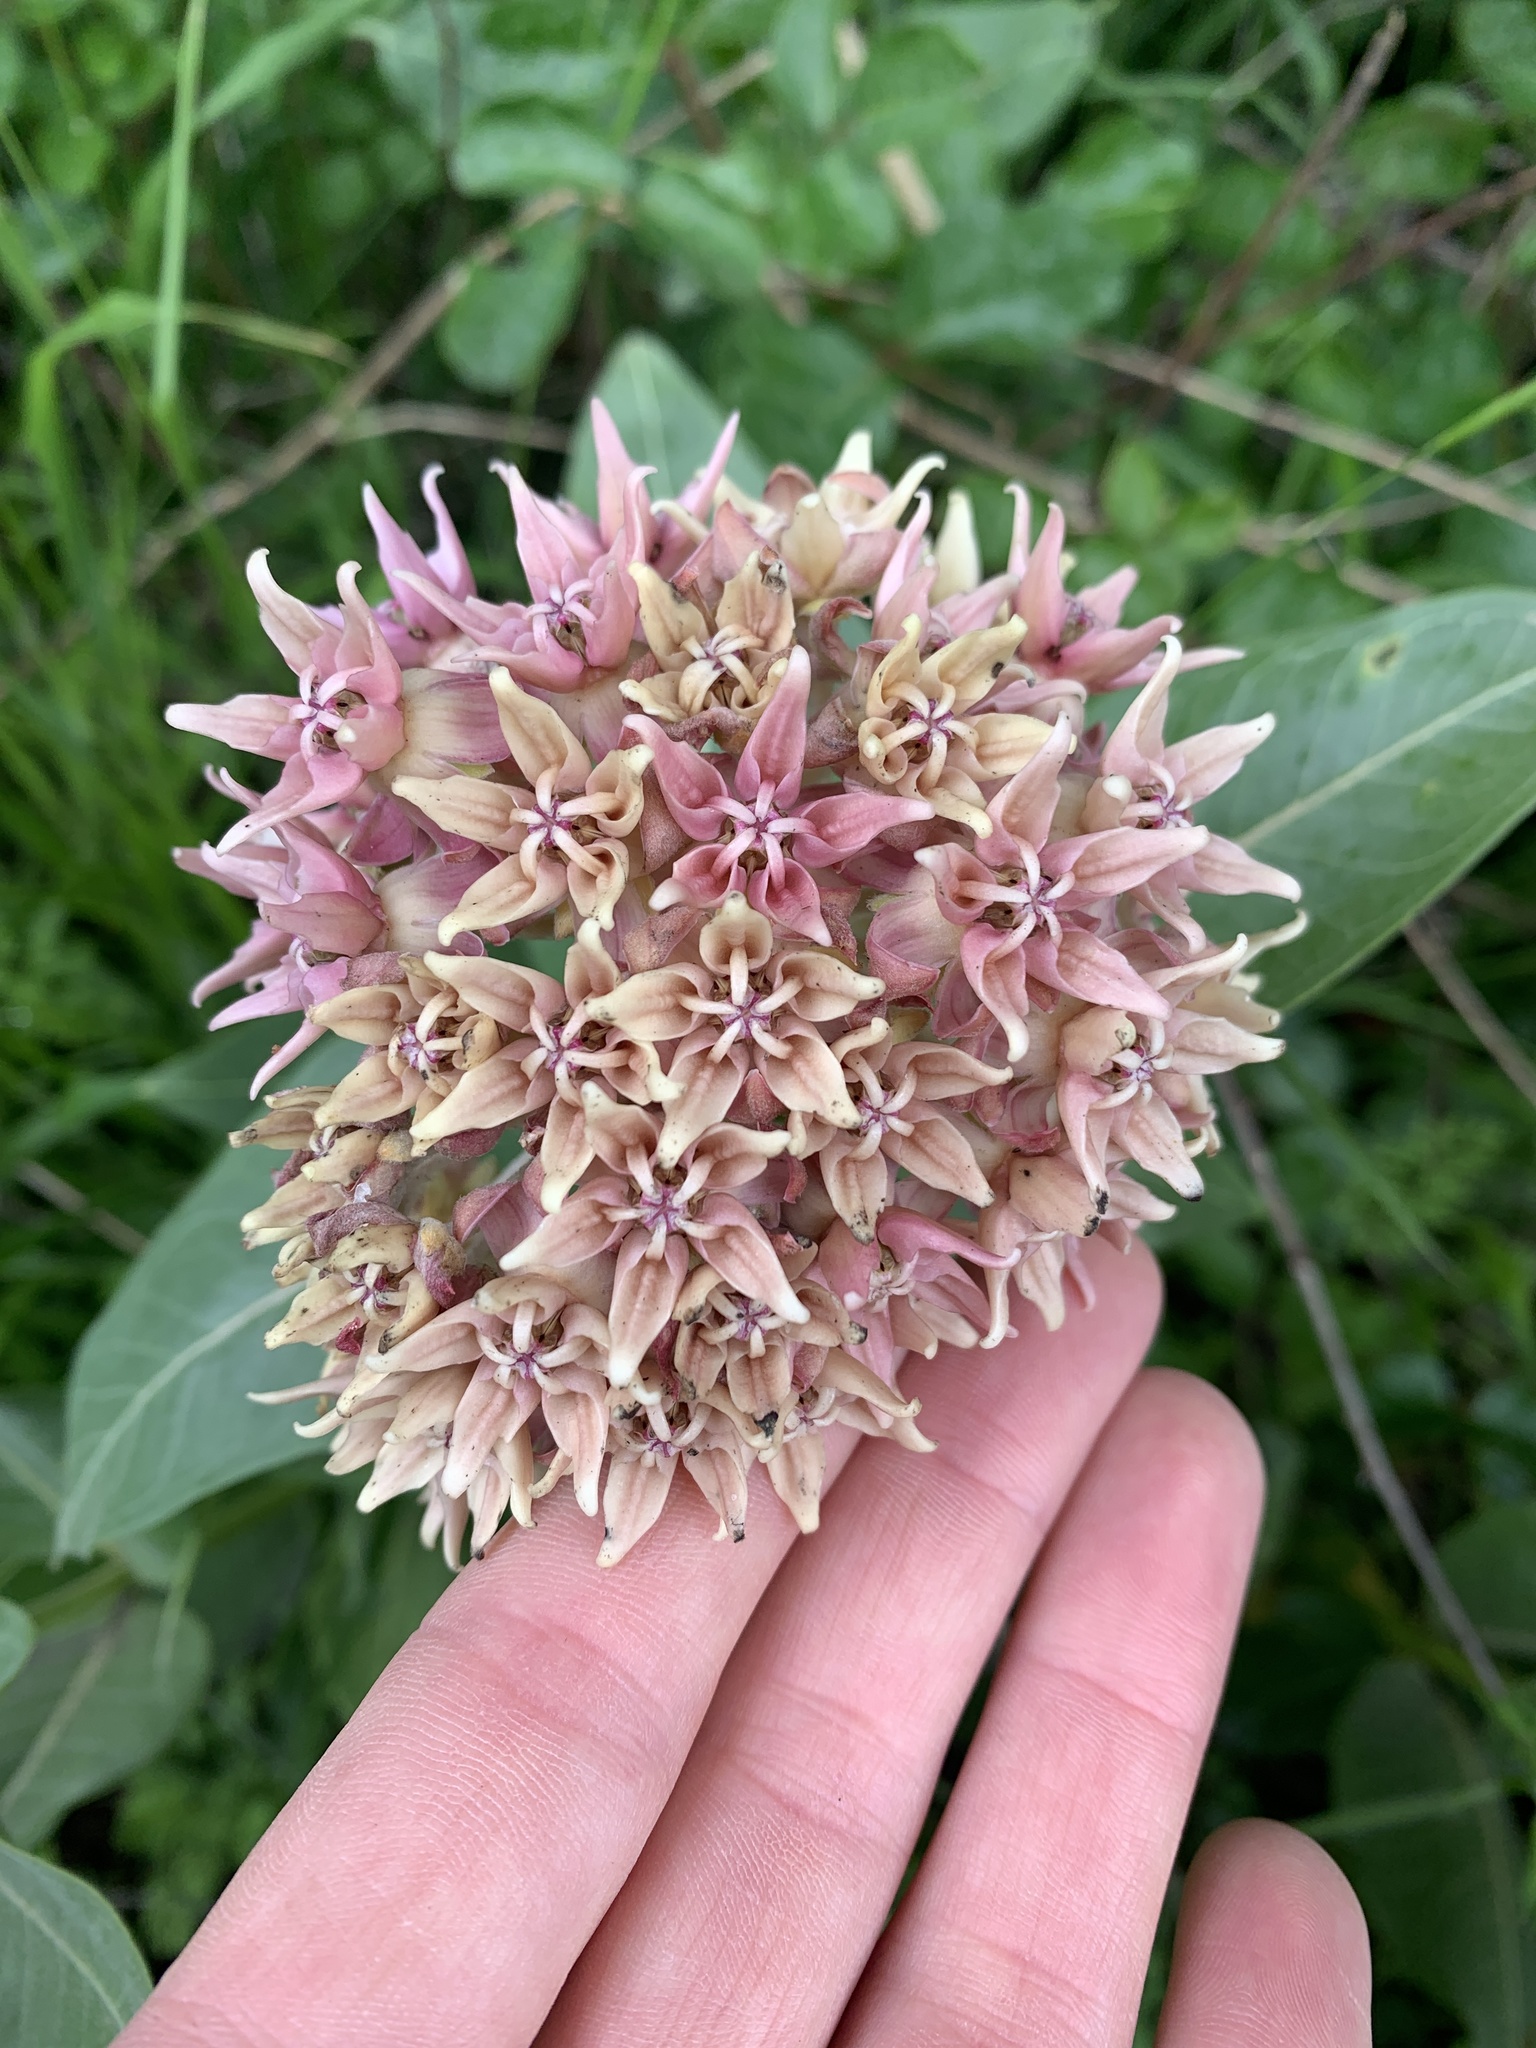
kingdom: Plantae
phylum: Tracheophyta
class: Magnoliopsida
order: Gentianales
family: Apocynaceae
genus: Asclepias
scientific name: Asclepias speciosa
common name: Showy milkweed
